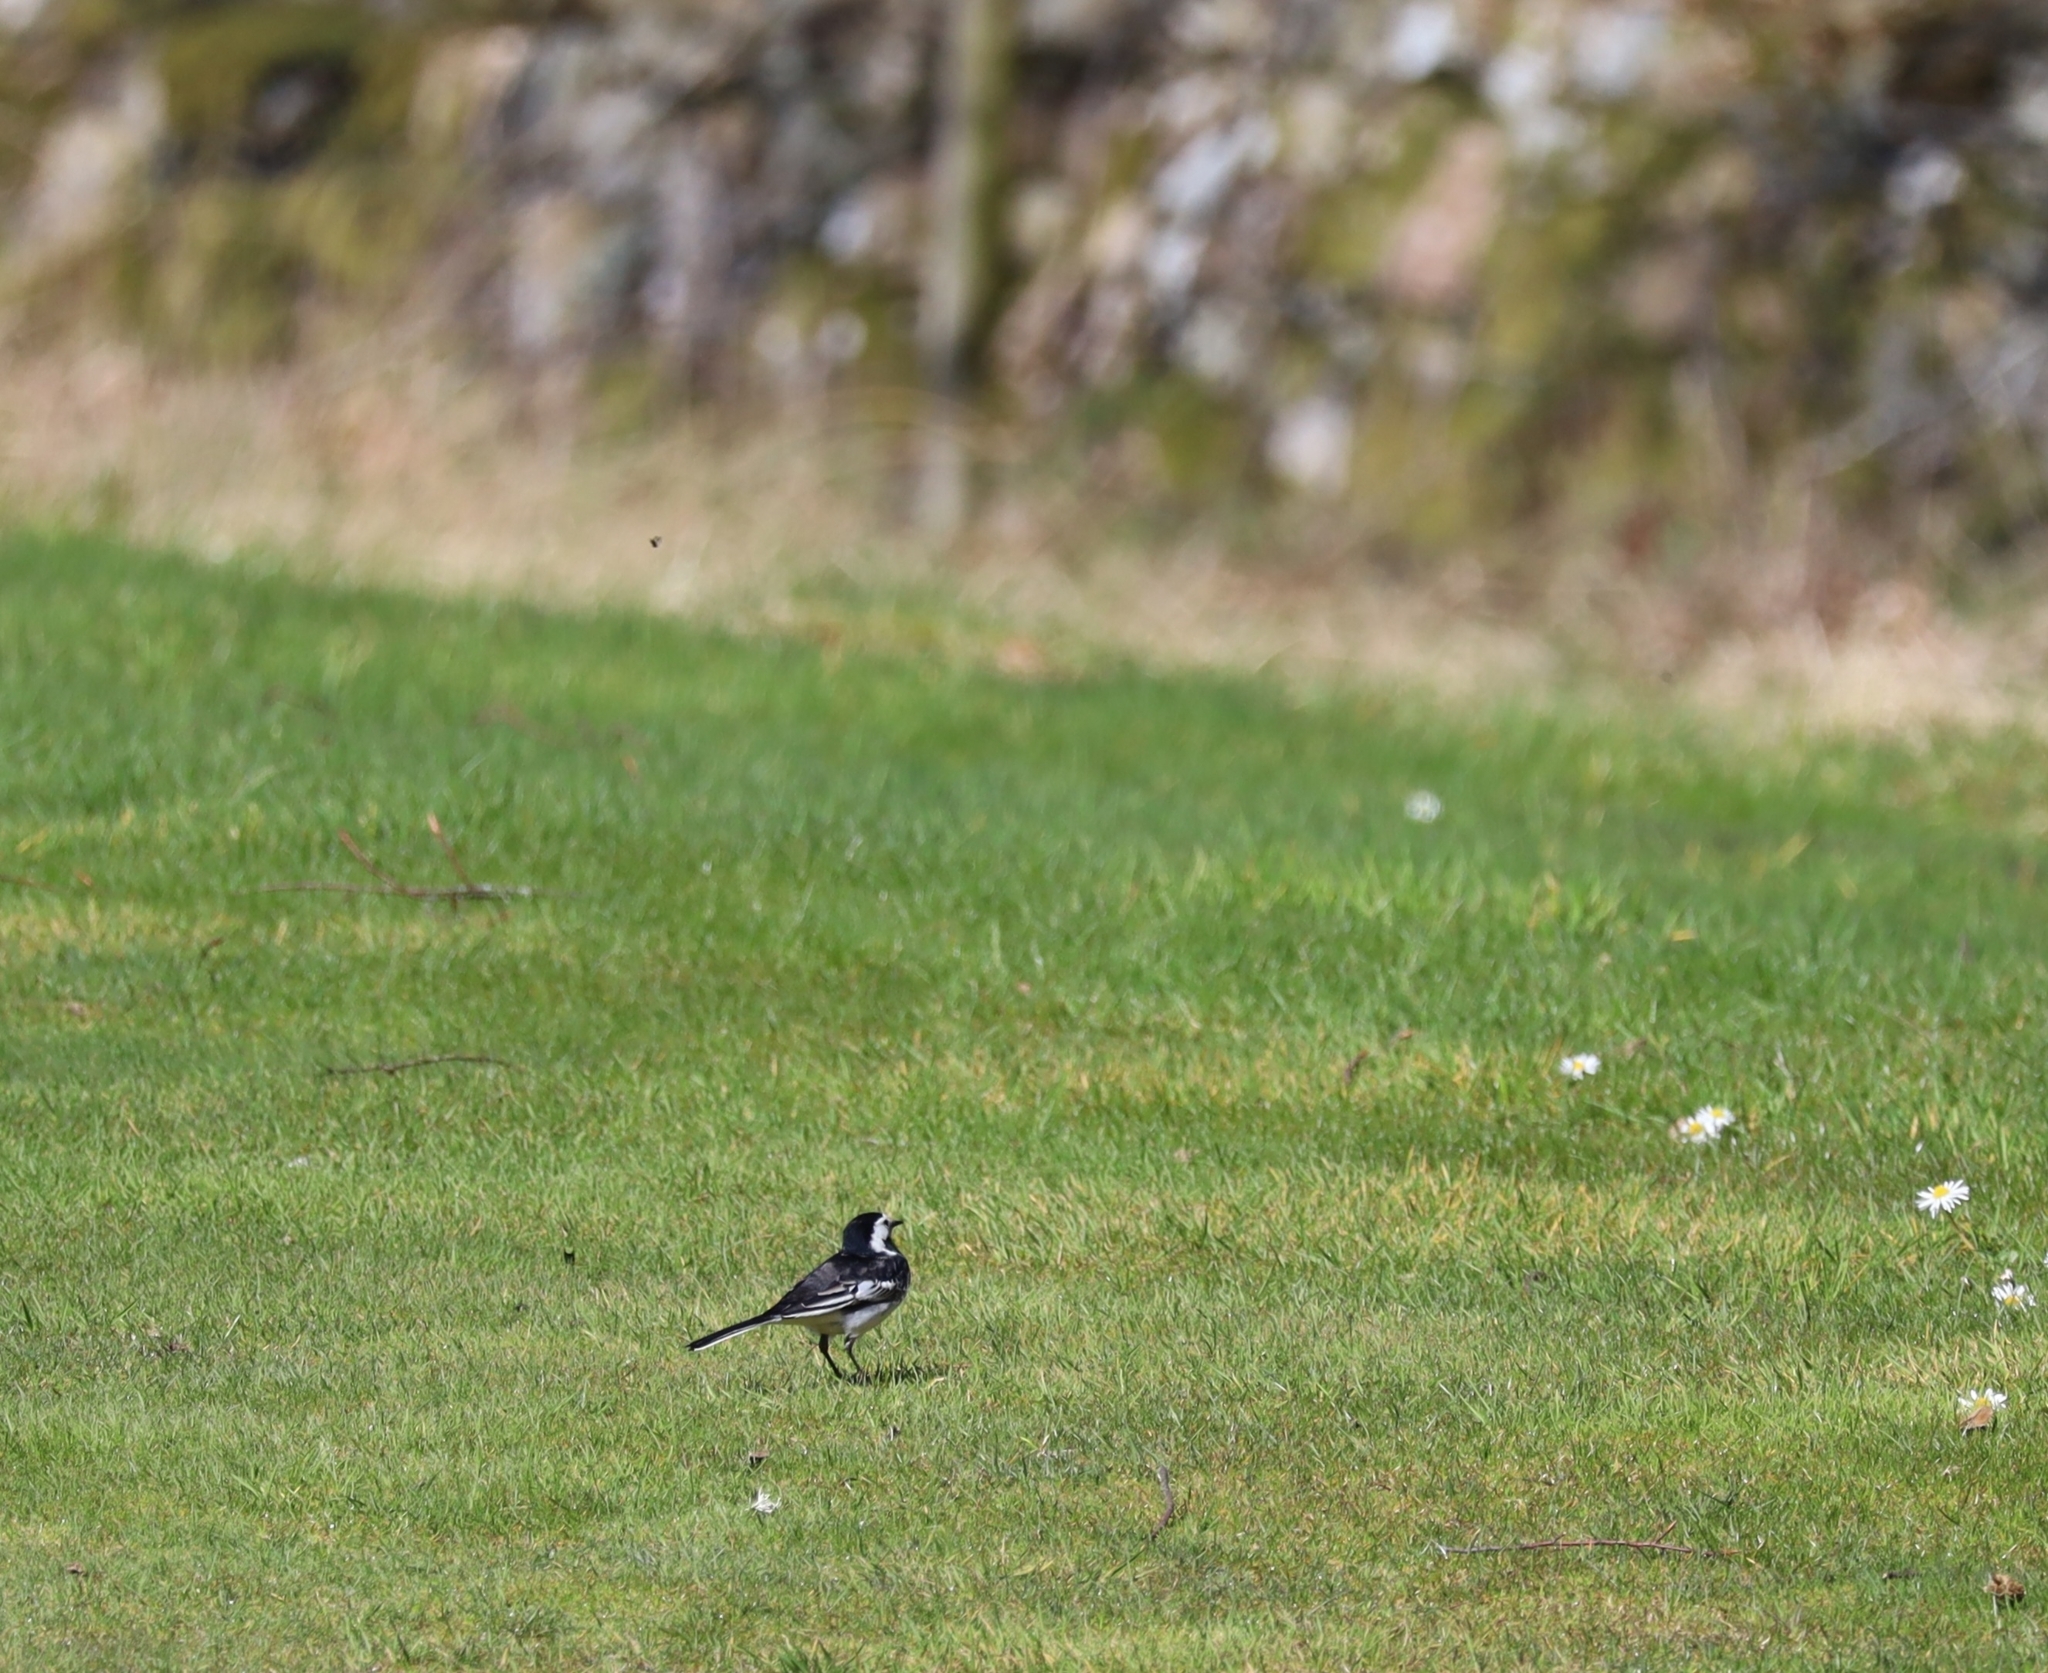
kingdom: Animalia
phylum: Chordata
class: Aves
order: Passeriformes
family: Motacillidae
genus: Motacilla
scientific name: Motacilla alba
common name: White wagtail
